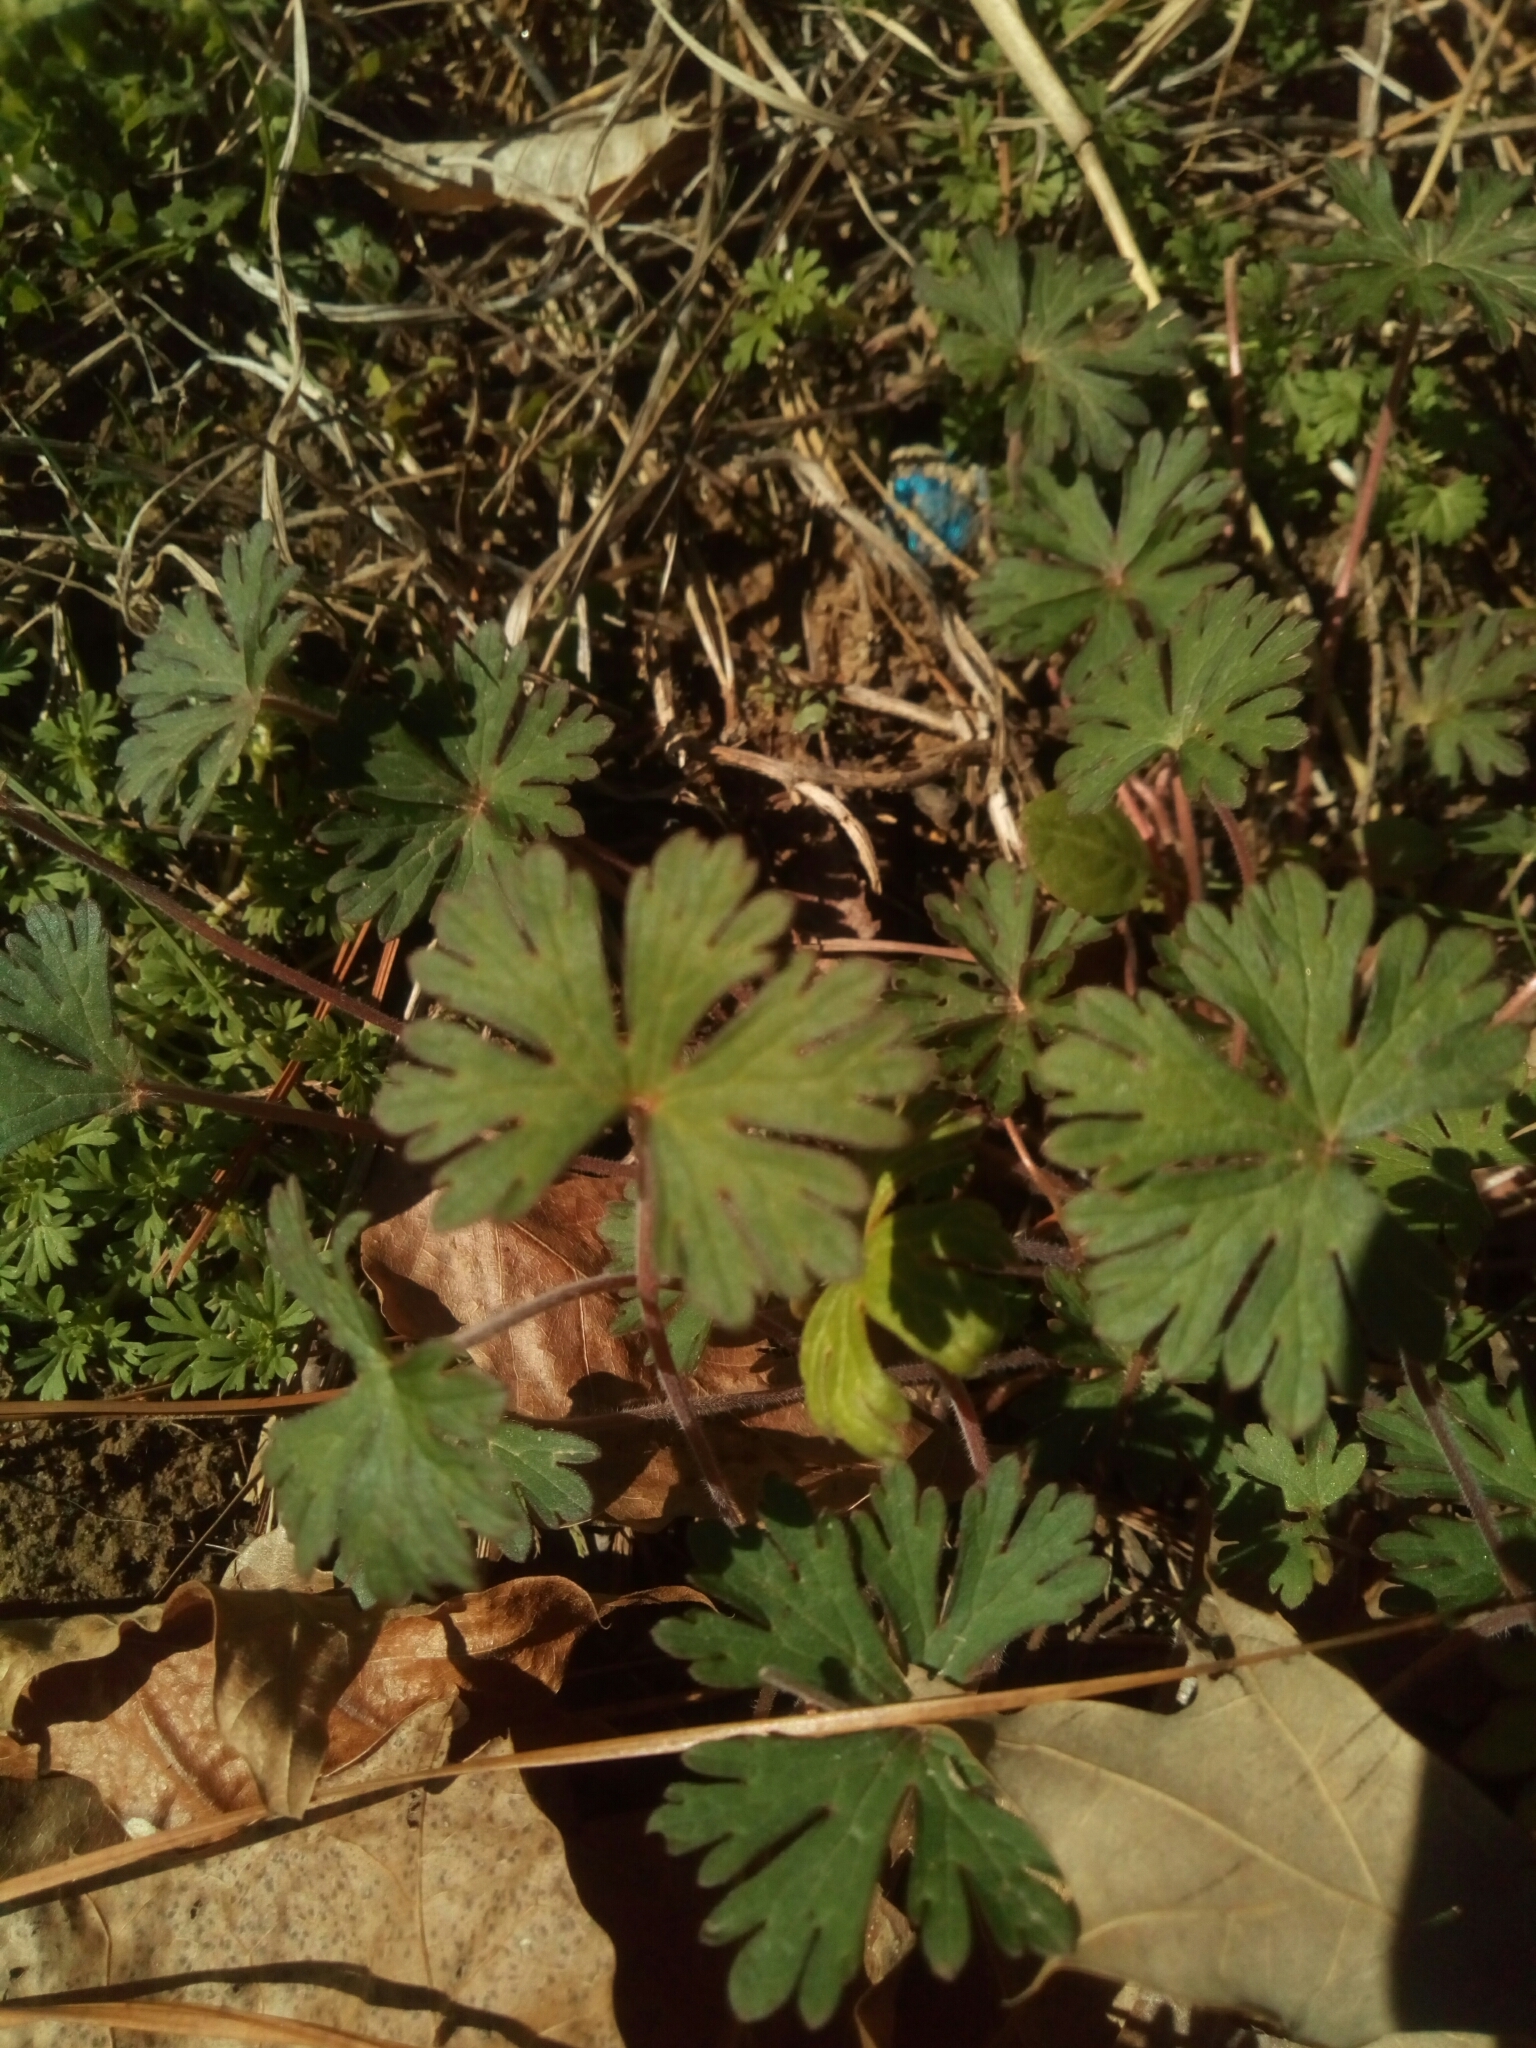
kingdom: Plantae
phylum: Tracheophyta
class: Magnoliopsida
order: Geraniales
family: Geraniaceae
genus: Geranium
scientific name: Geranium carolinianum
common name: Carolina crane's-bill
